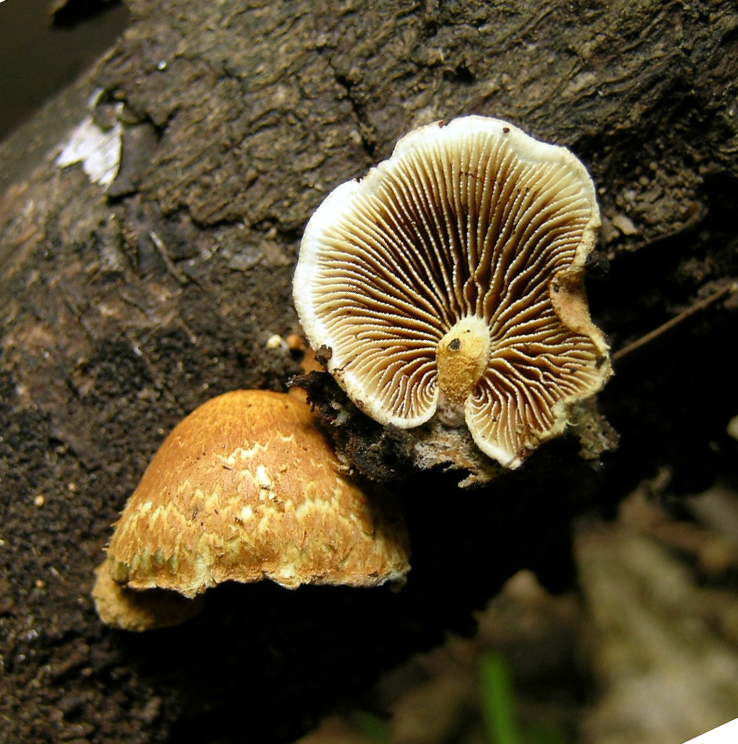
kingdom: Fungi
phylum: Basidiomycota
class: Agaricomycetes
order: Agaricales
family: Crepidotaceae
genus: Pleuroflammula
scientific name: Pleuroflammula ambigua
